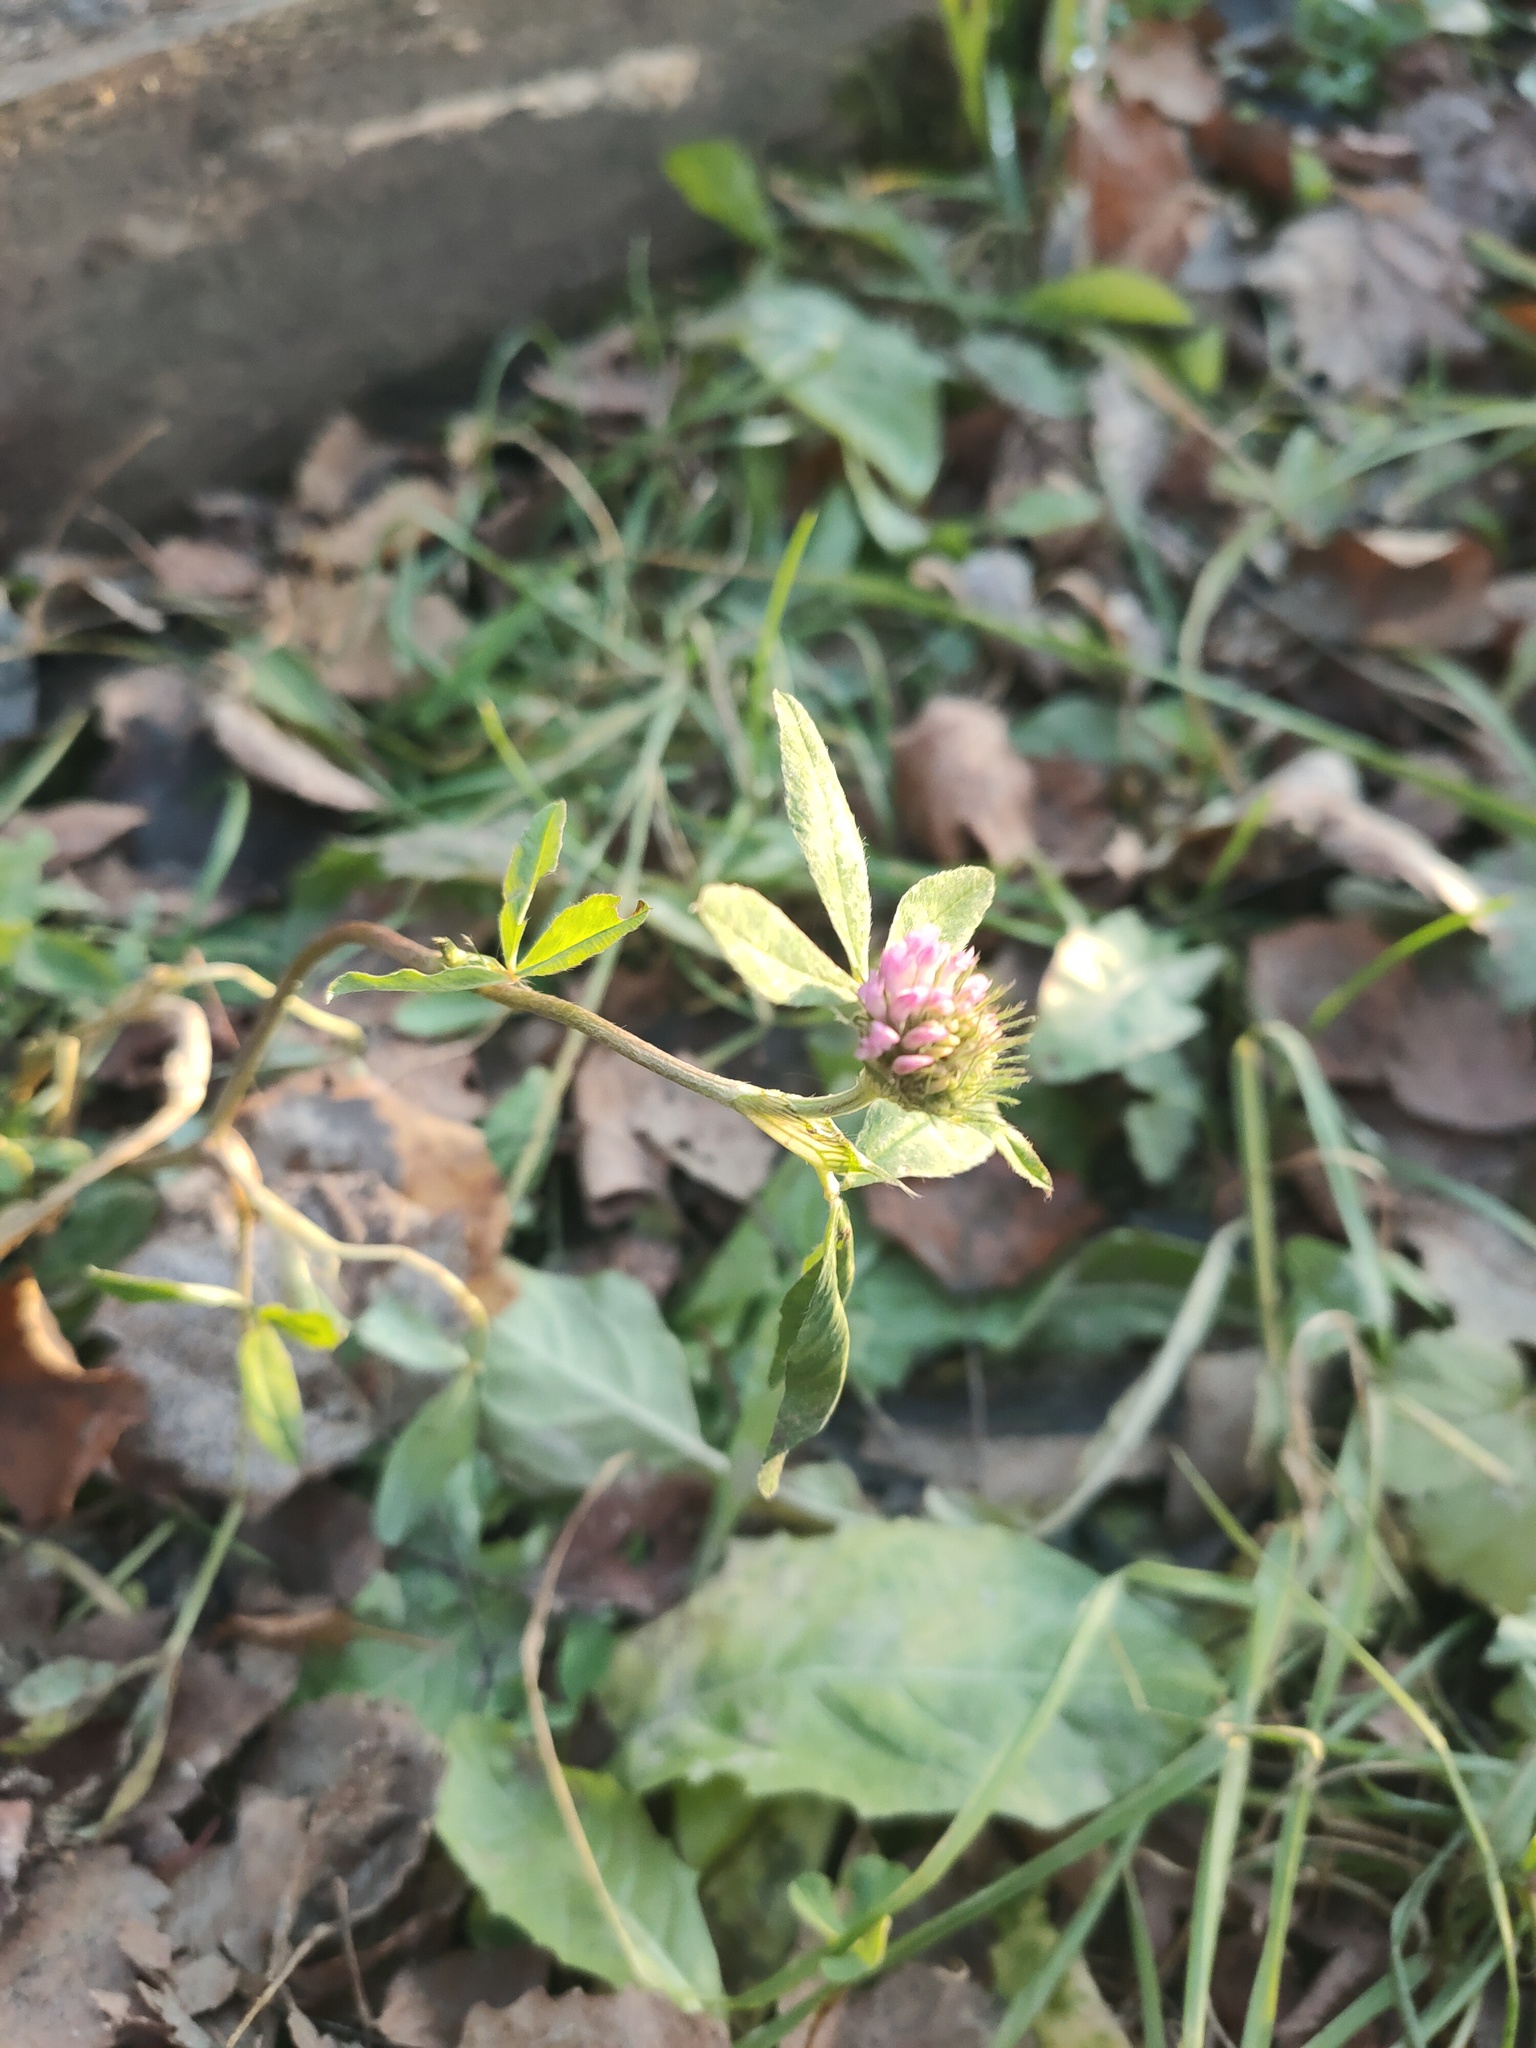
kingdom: Plantae
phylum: Tracheophyta
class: Magnoliopsida
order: Fabales
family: Fabaceae
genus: Trifolium
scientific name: Trifolium pratense
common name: Red clover
